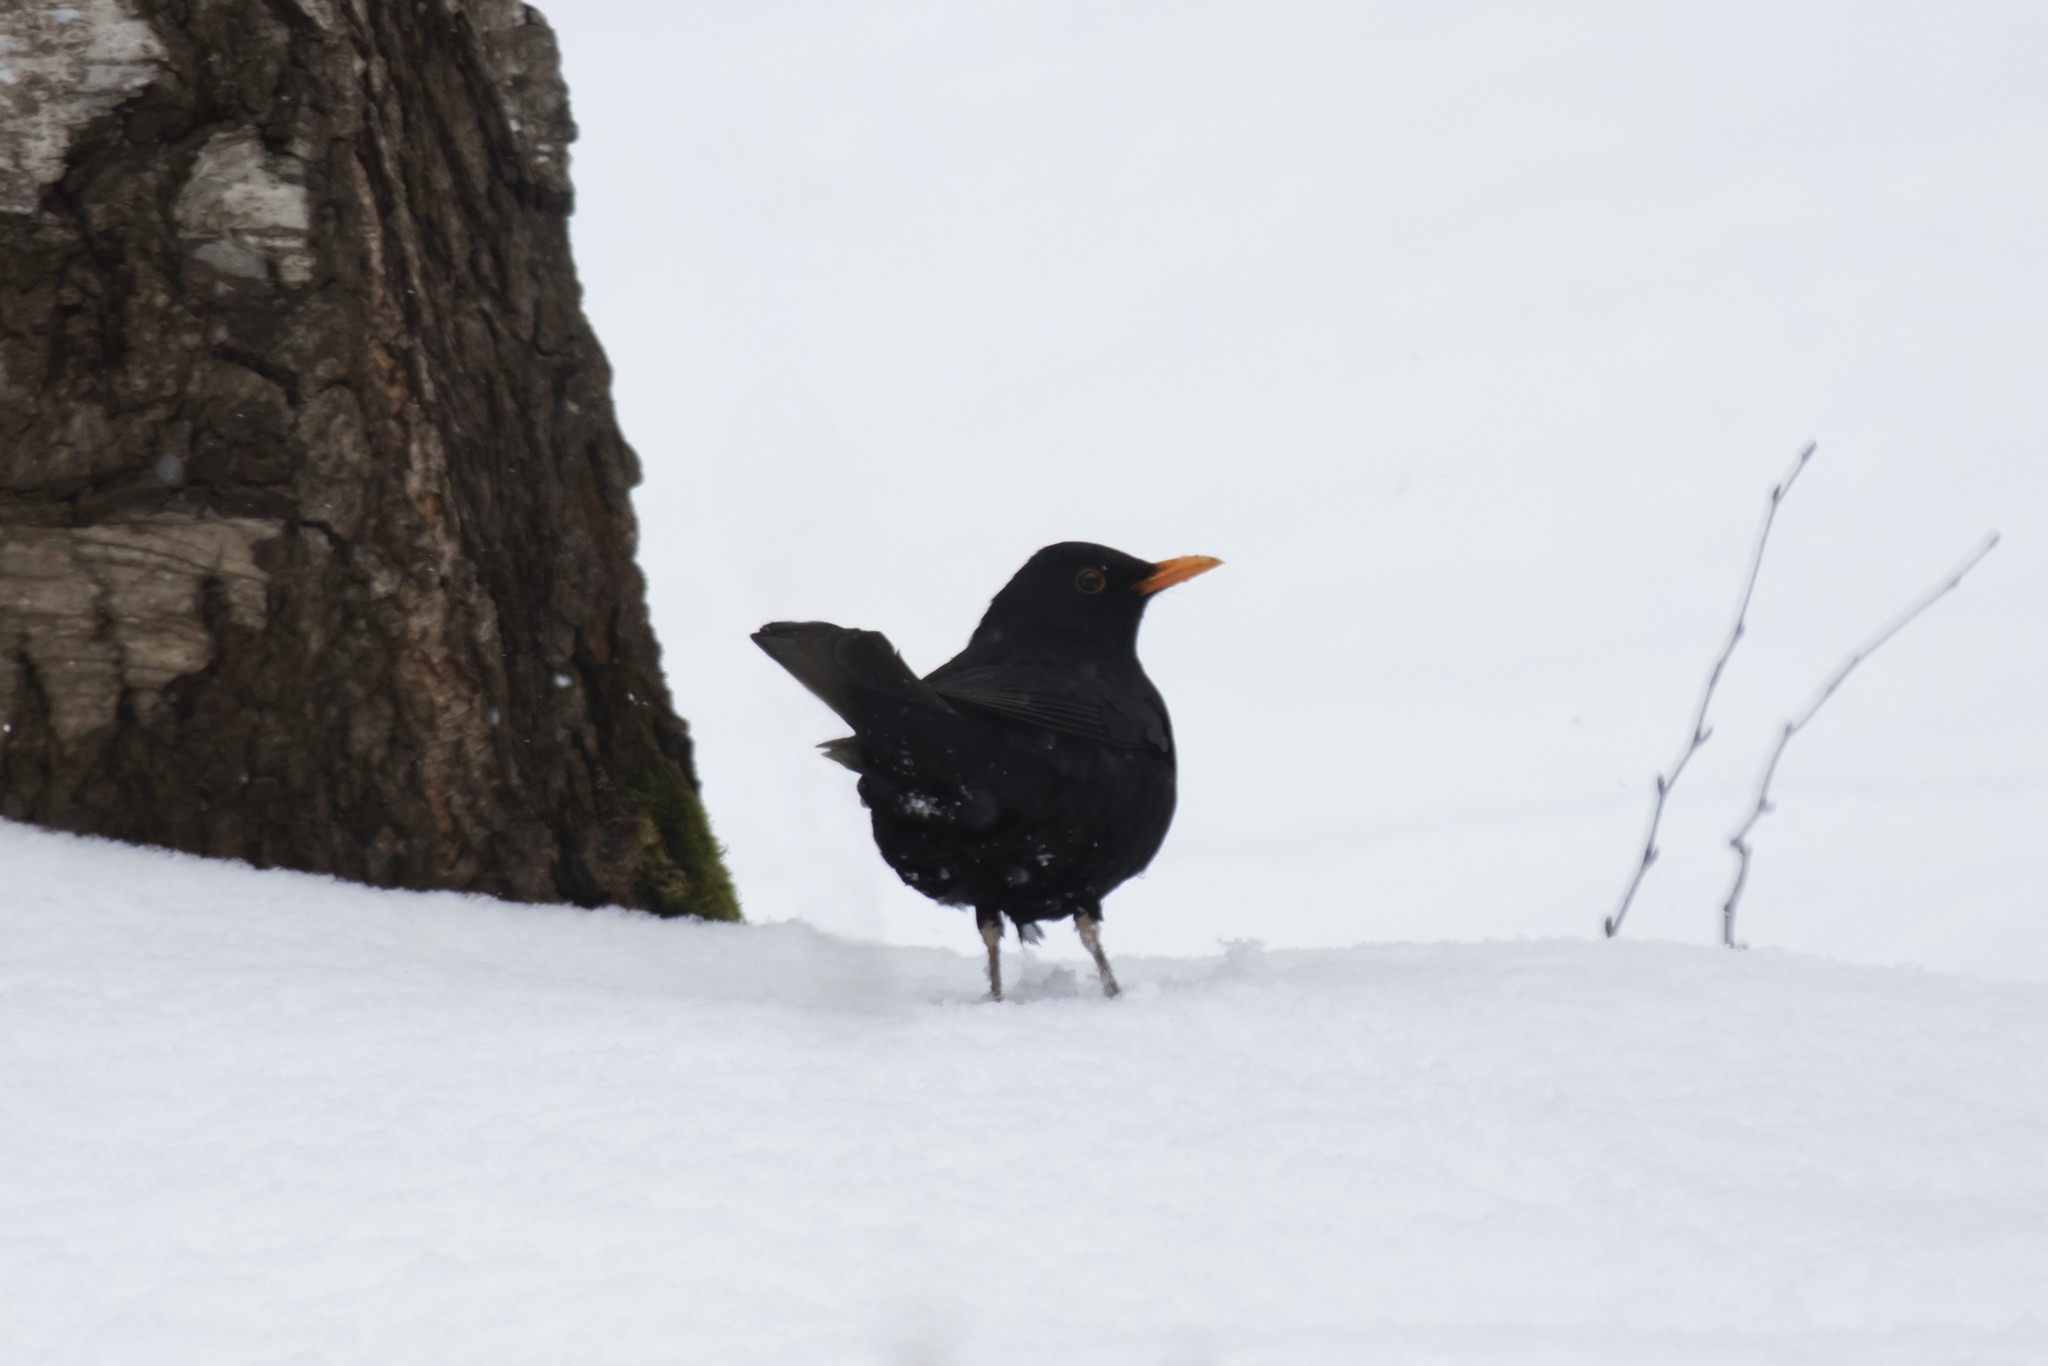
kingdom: Animalia
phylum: Chordata
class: Aves
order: Passeriformes
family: Turdidae
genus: Turdus
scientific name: Turdus merula
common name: Common blackbird
